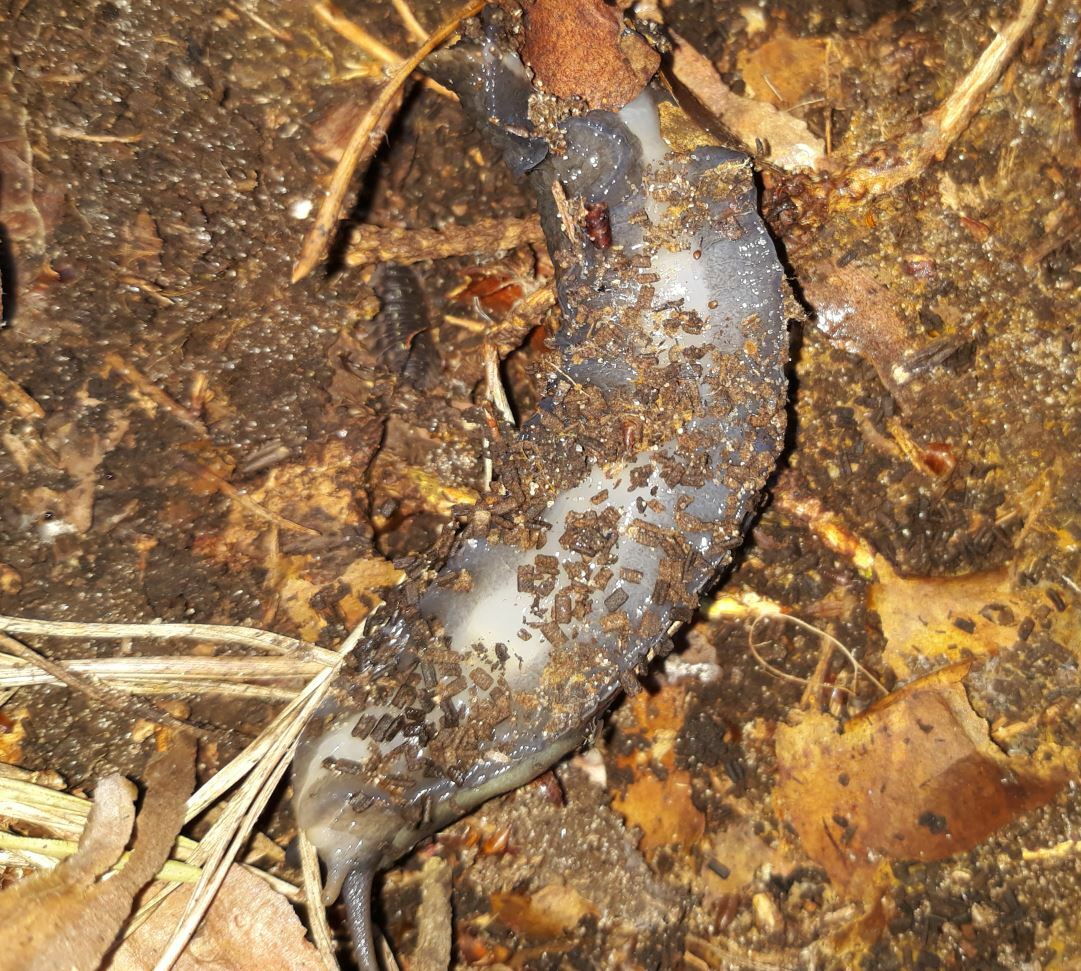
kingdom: Animalia
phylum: Mollusca
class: Gastropoda
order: Stylommatophora
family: Limacidae
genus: Limax
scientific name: Limax cinereoniger
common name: Ash-black slug
